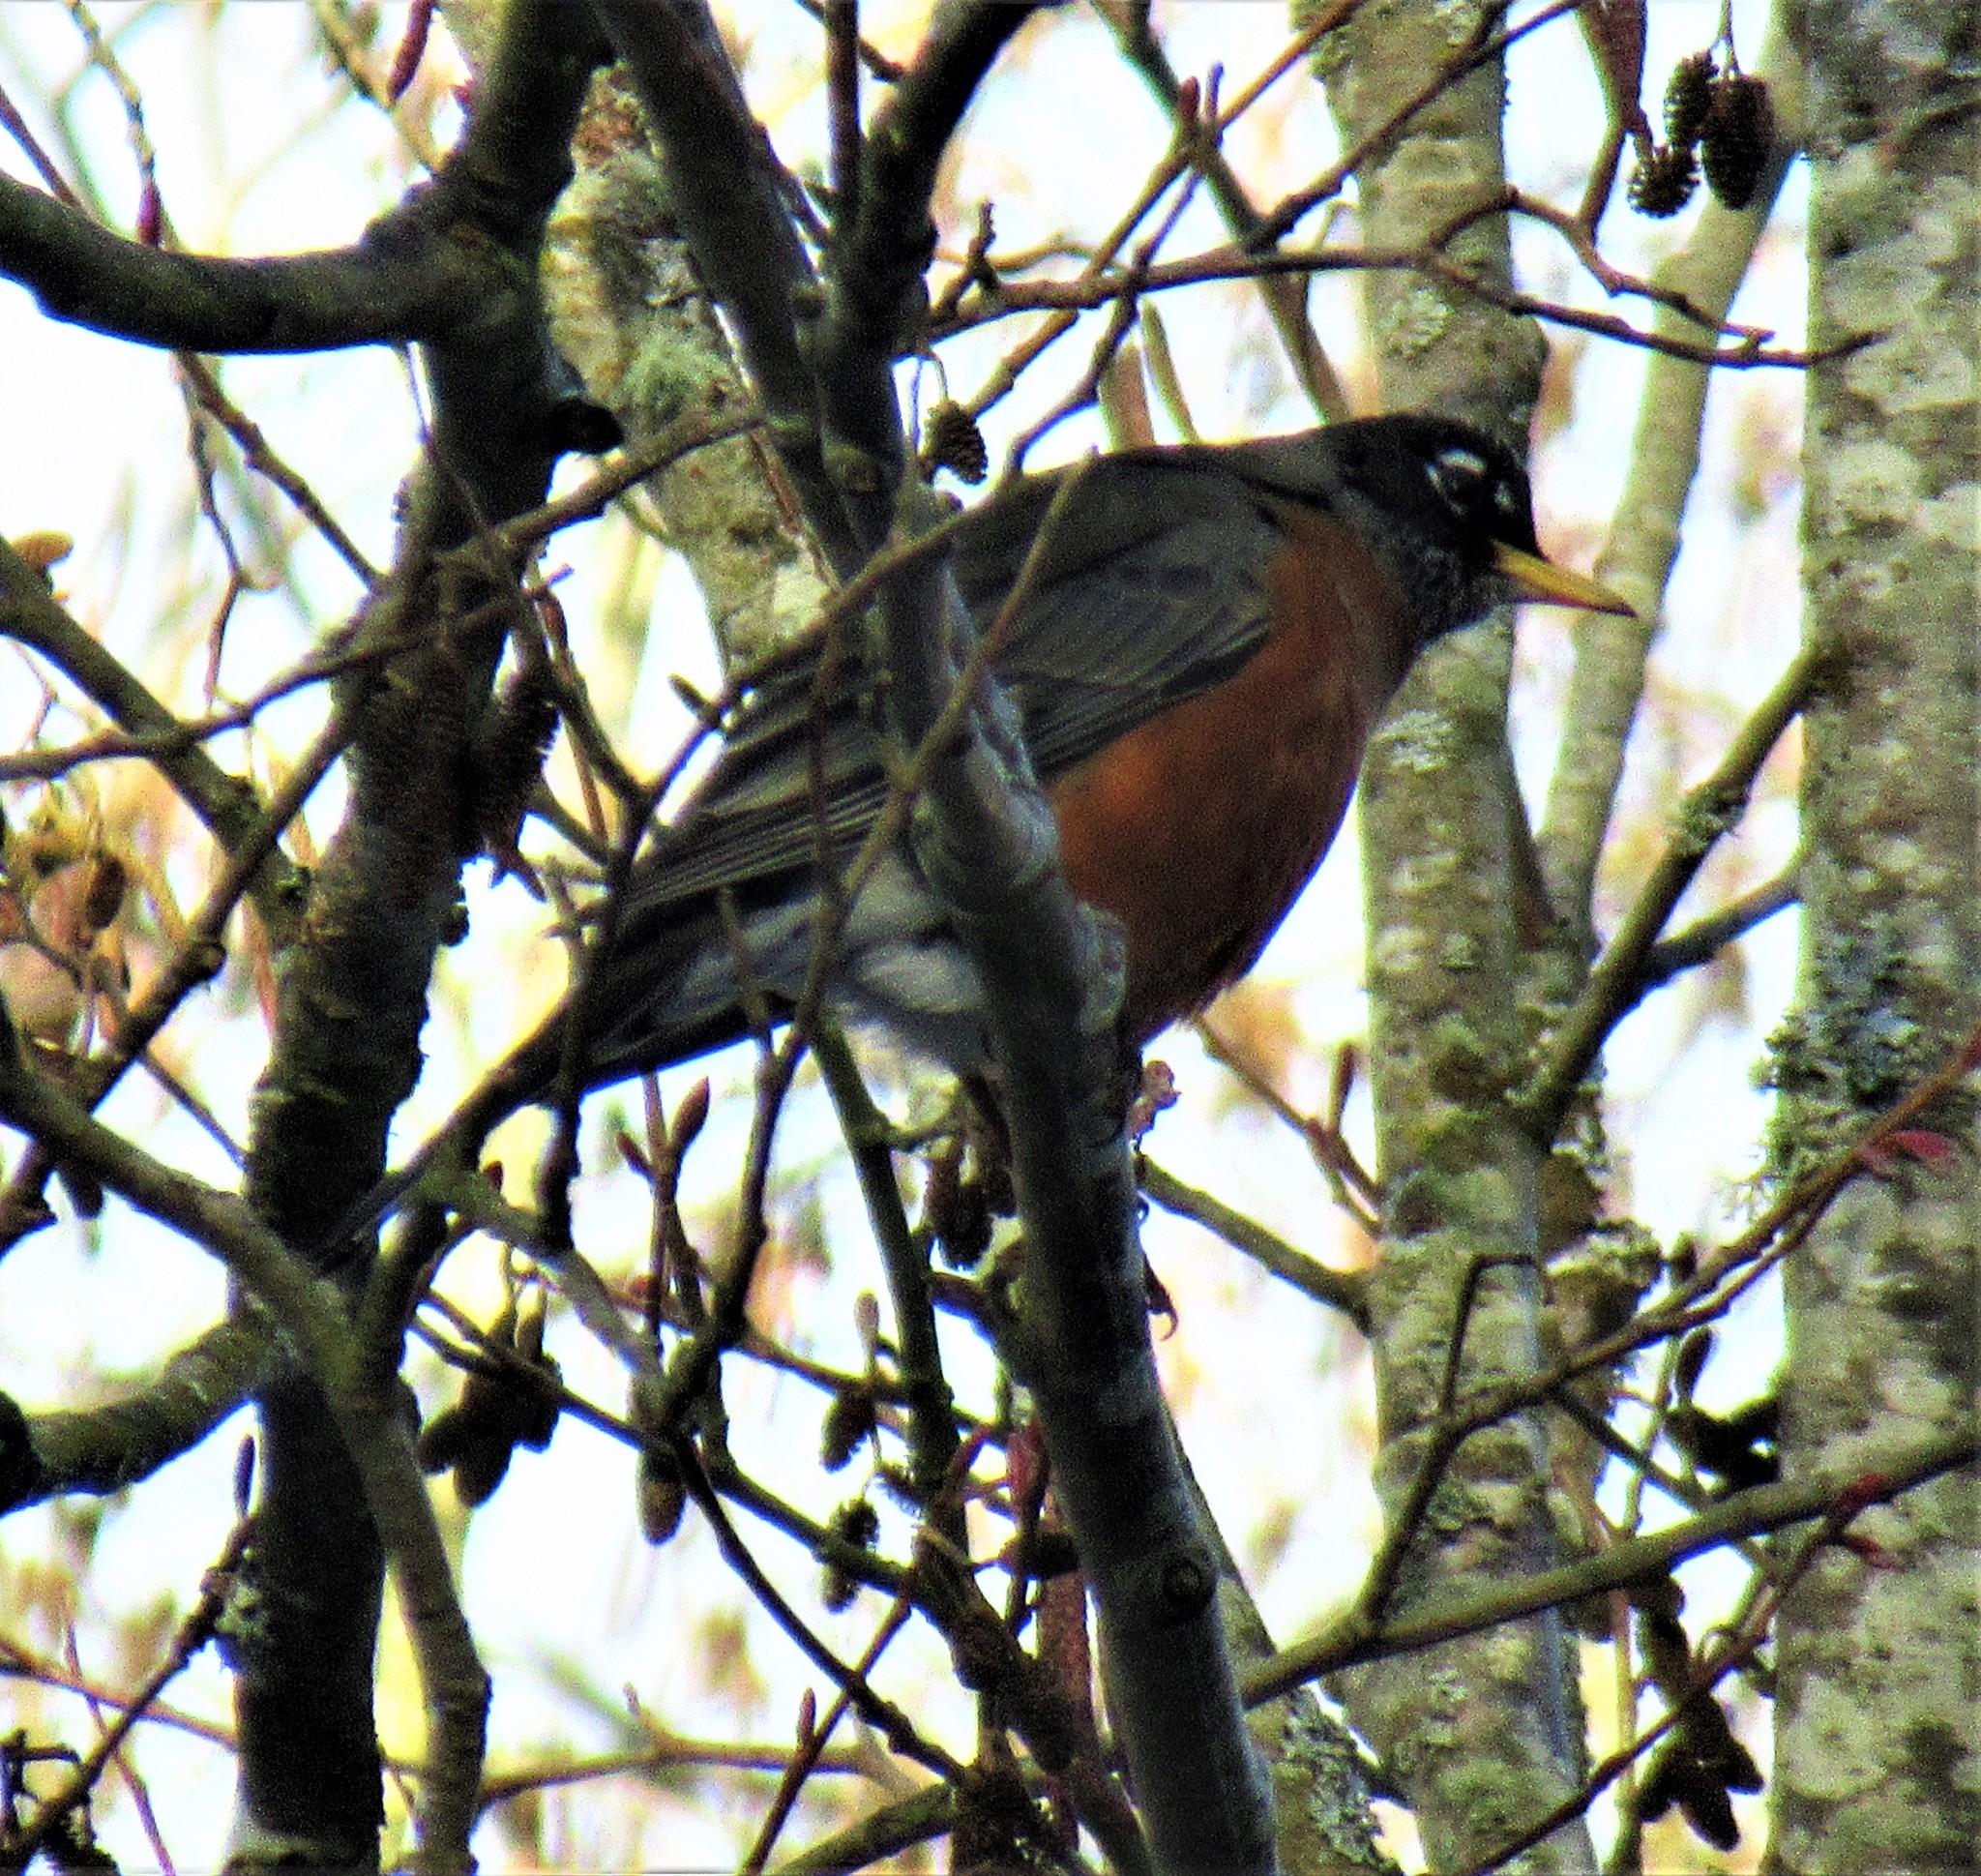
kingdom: Animalia
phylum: Chordata
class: Aves
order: Passeriformes
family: Turdidae
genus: Turdus
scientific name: Turdus migratorius
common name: American robin
